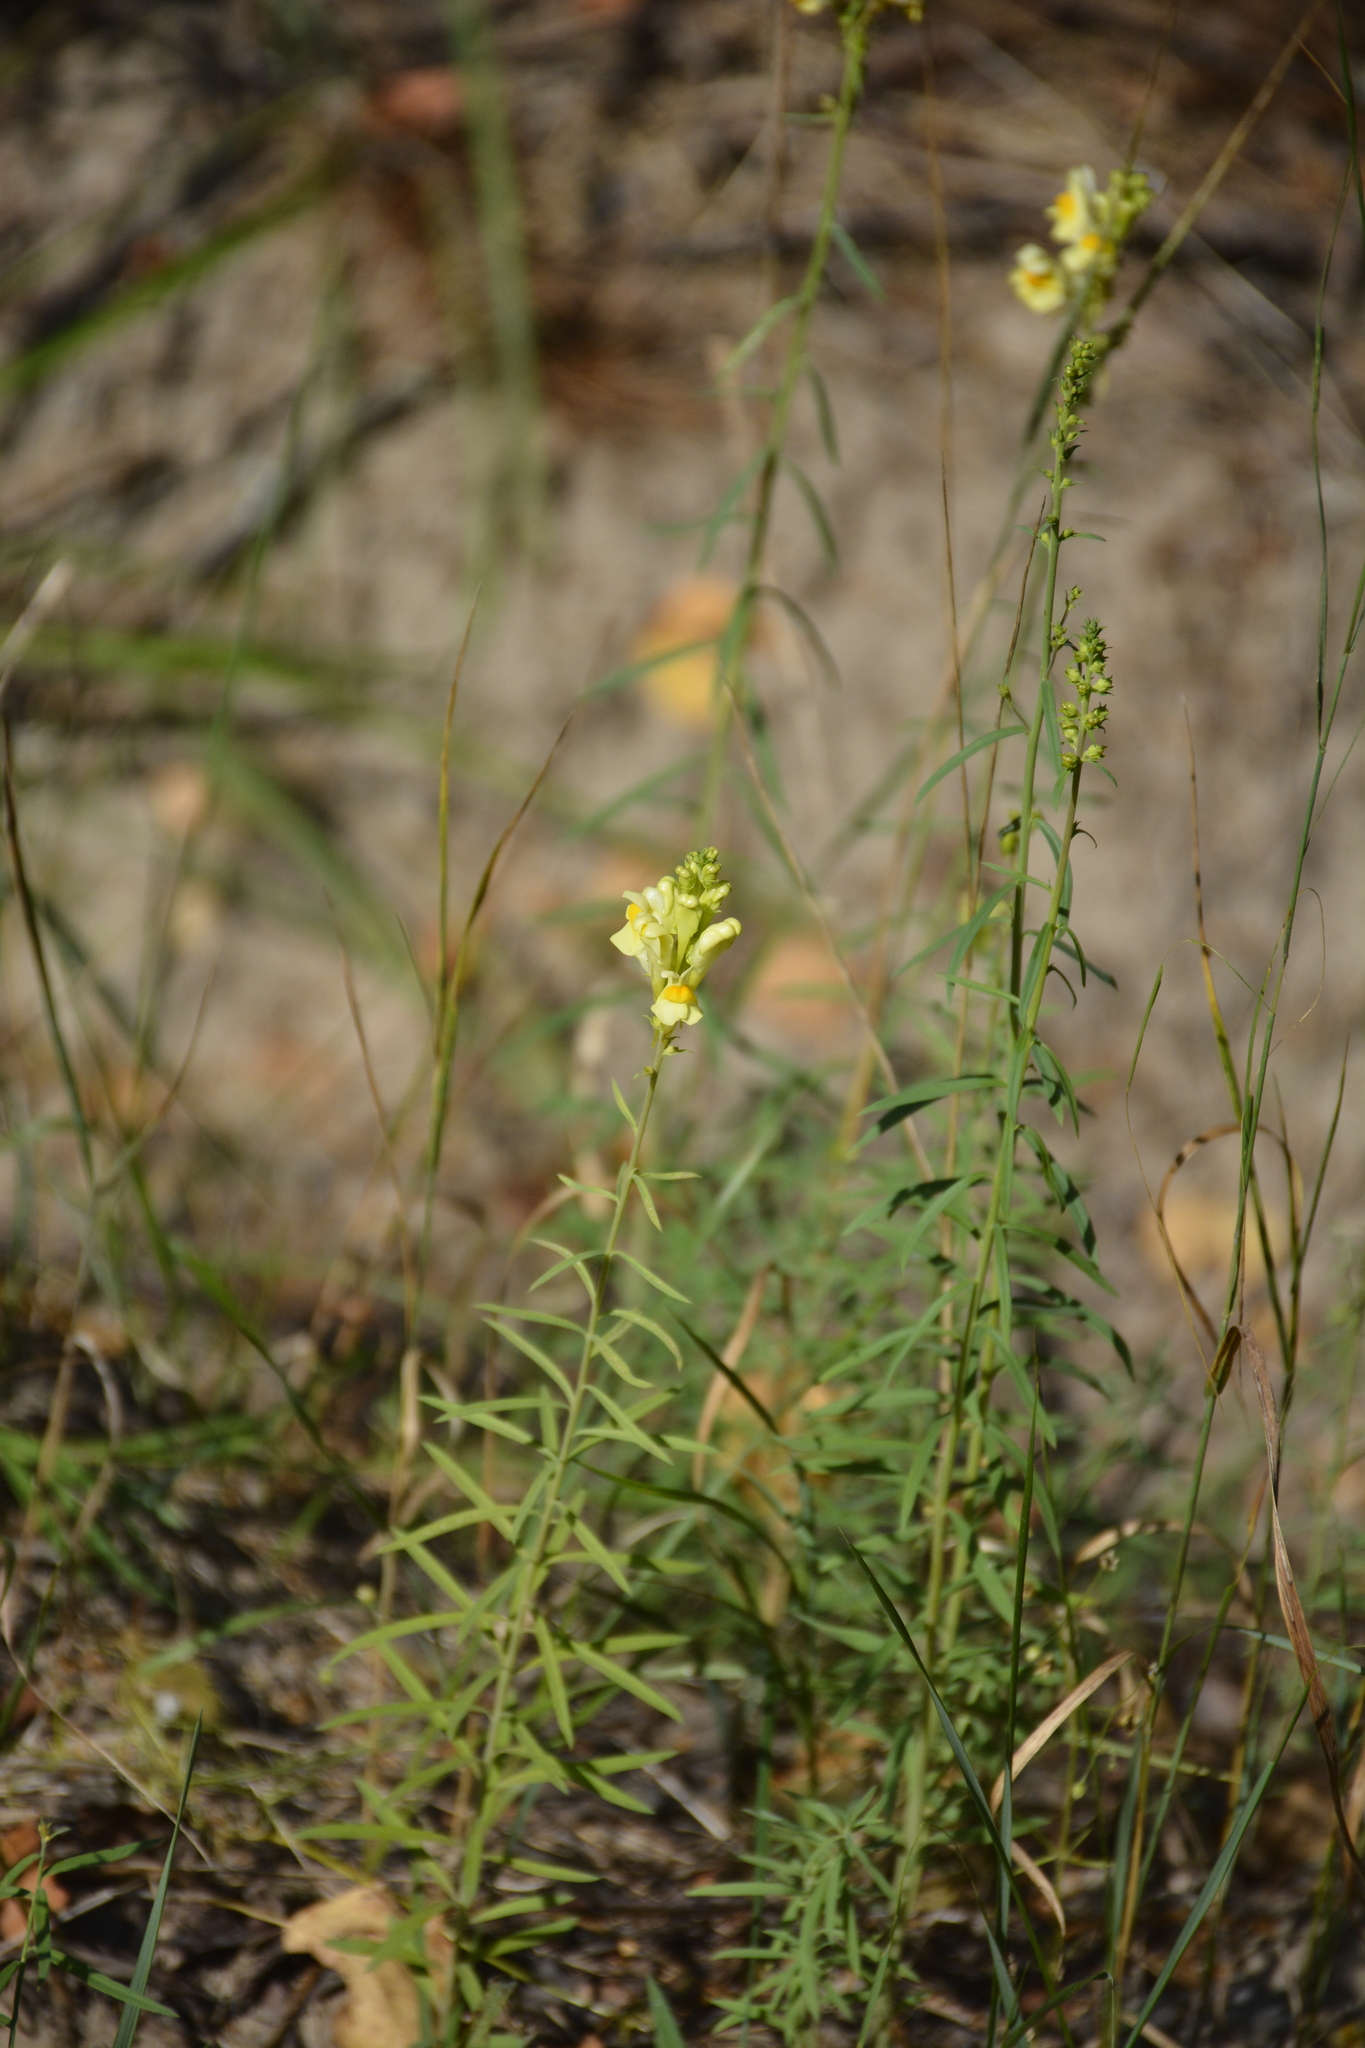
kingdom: Plantae
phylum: Tracheophyta
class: Magnoliopsida
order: Lamiales
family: Plantaginaceae
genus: Linaria
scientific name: Linaria vulgaris
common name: Butter and eggs
